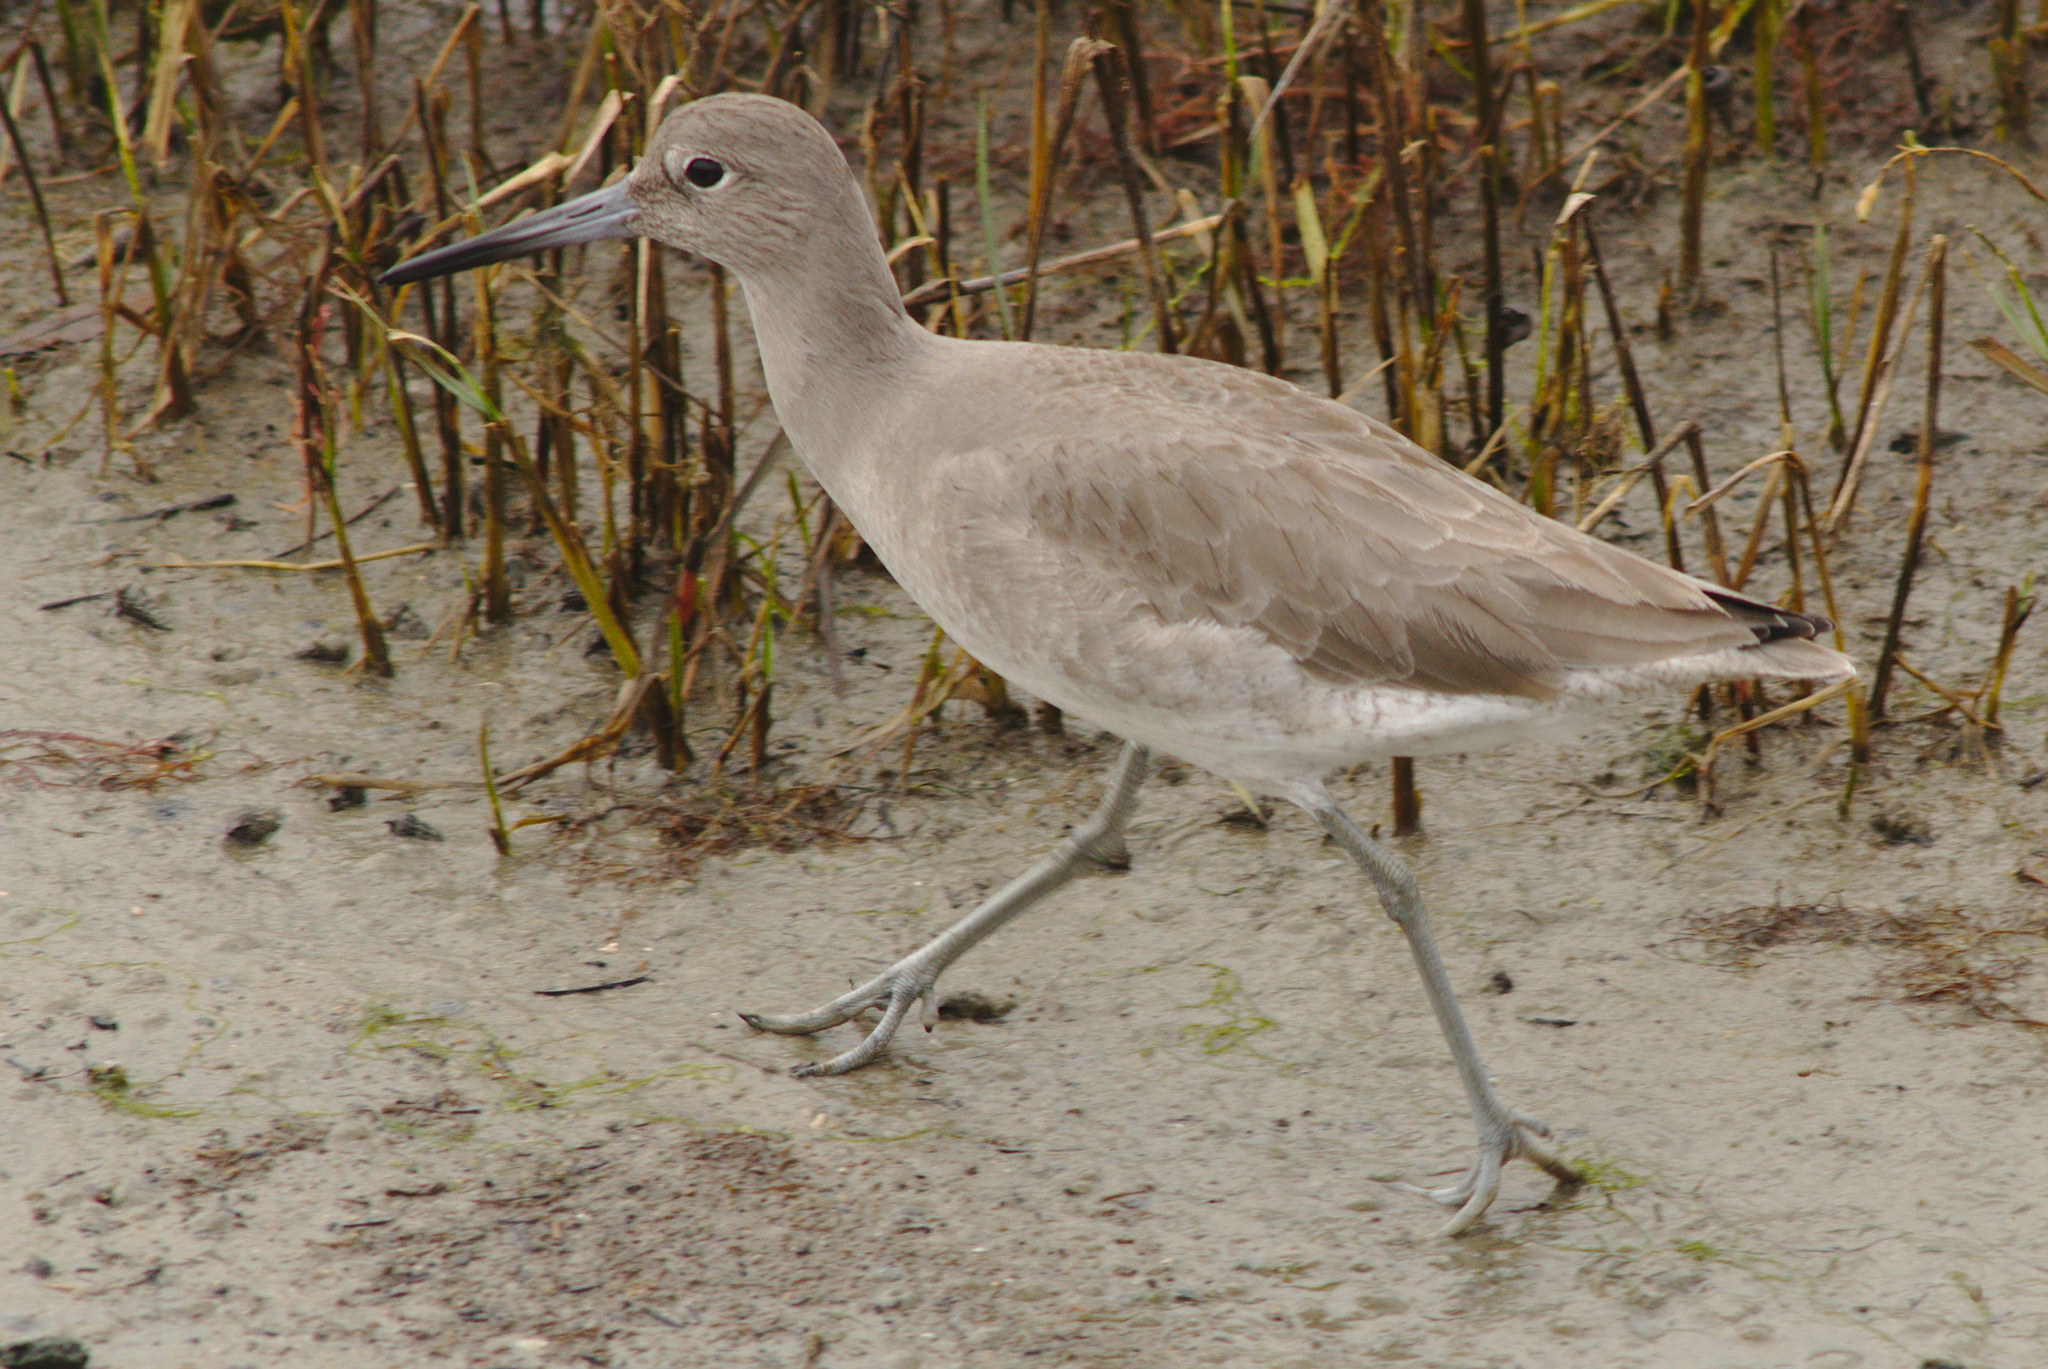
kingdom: Animalia
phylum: Chordata
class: Aves
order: Charadriiformes
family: Scolopacidae
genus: Tringa
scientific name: Tringa semipalmata
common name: Willet
